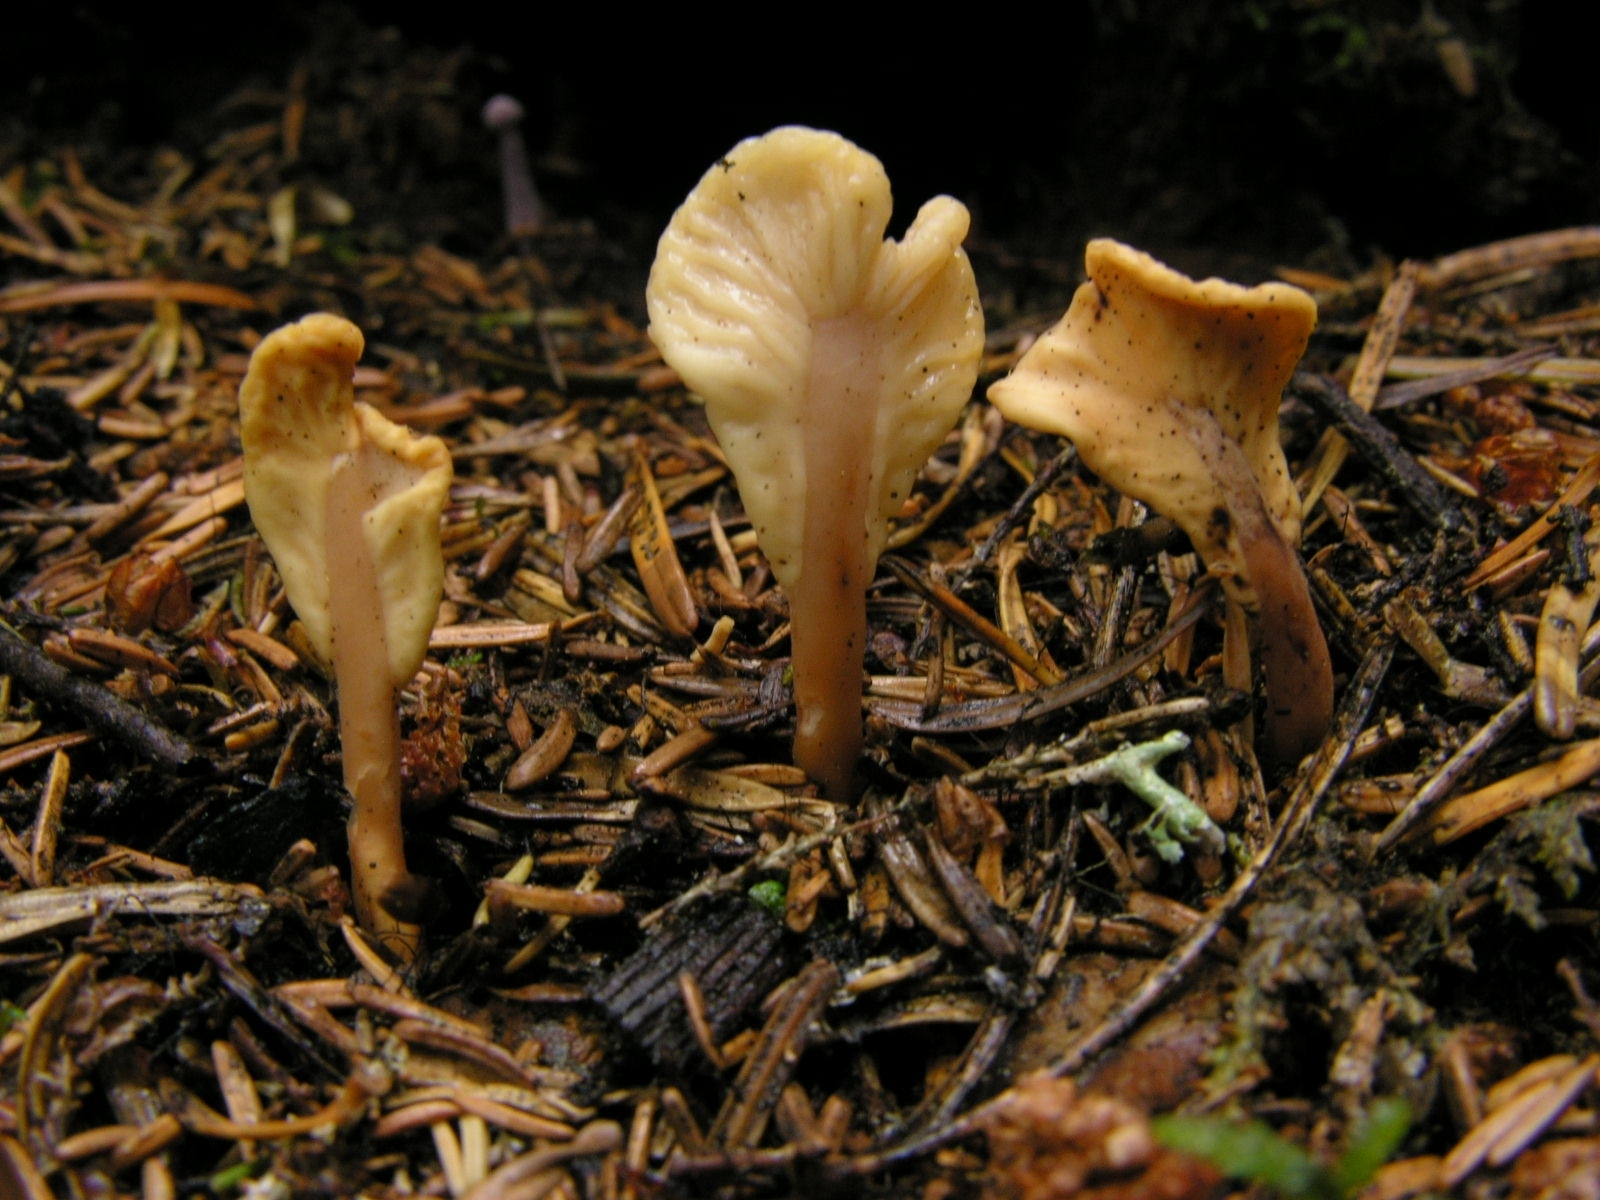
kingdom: Fungi
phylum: Ascomycota
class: Leotiomycetes
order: Rhytismatales
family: Cudoniaceae
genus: Spathularia
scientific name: Spathularia rufa
